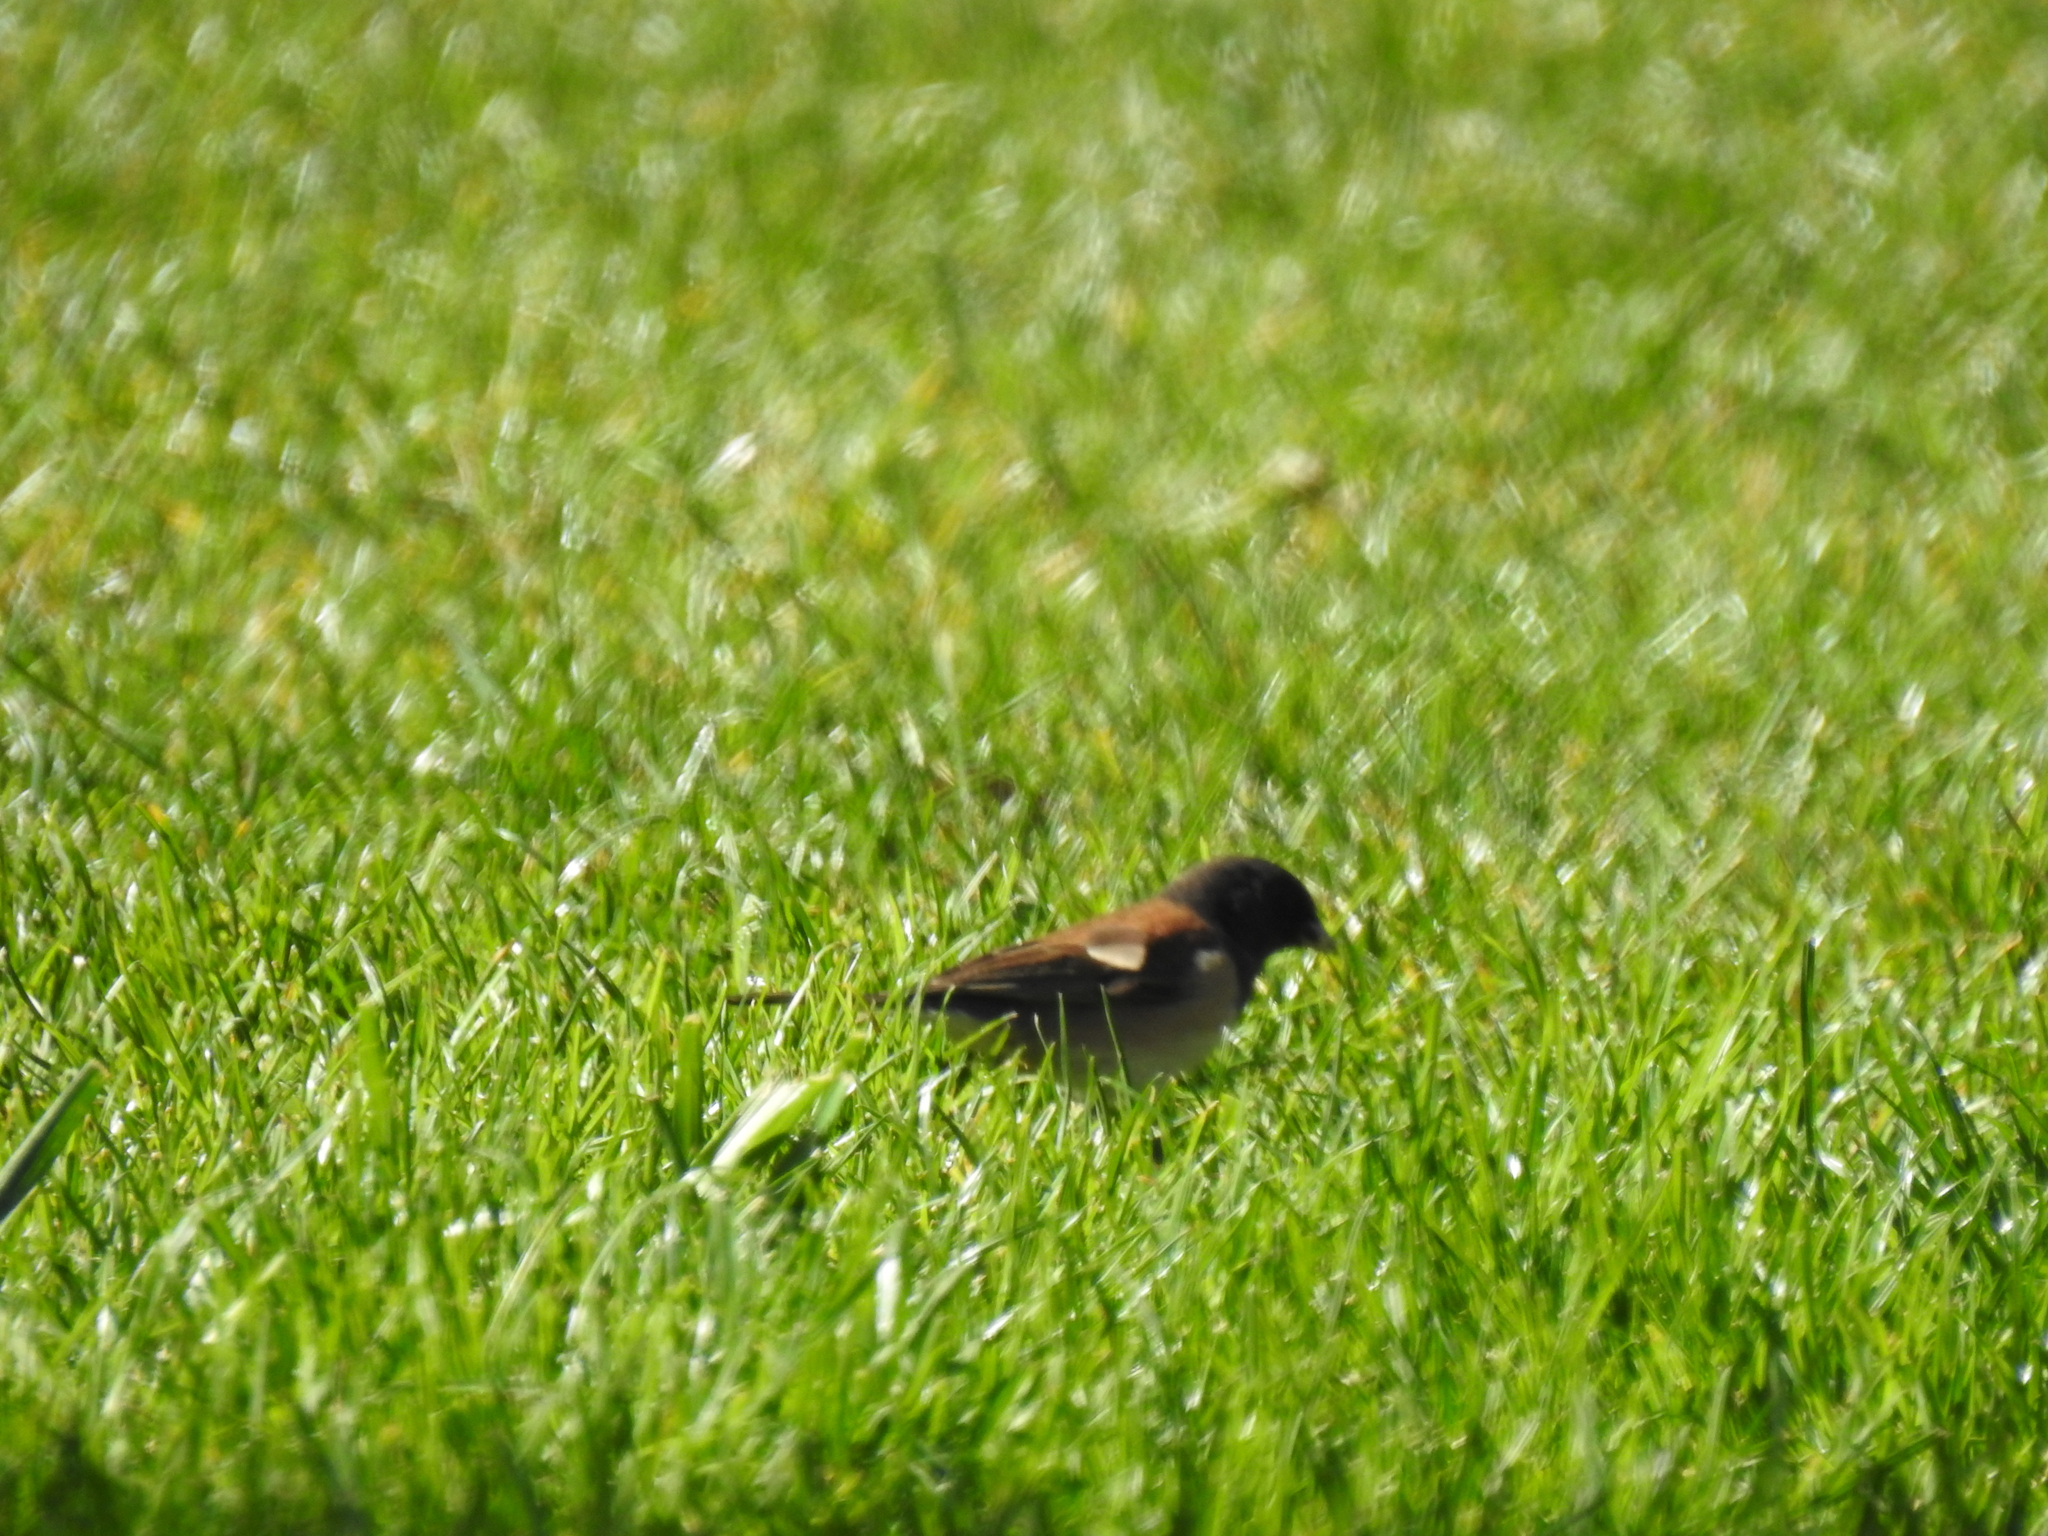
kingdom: Animalia
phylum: Chordata
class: Aves
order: Passeriformes
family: Passerellidae
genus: Junco
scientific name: Junco hyemalis
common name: Dark-eyed junco
